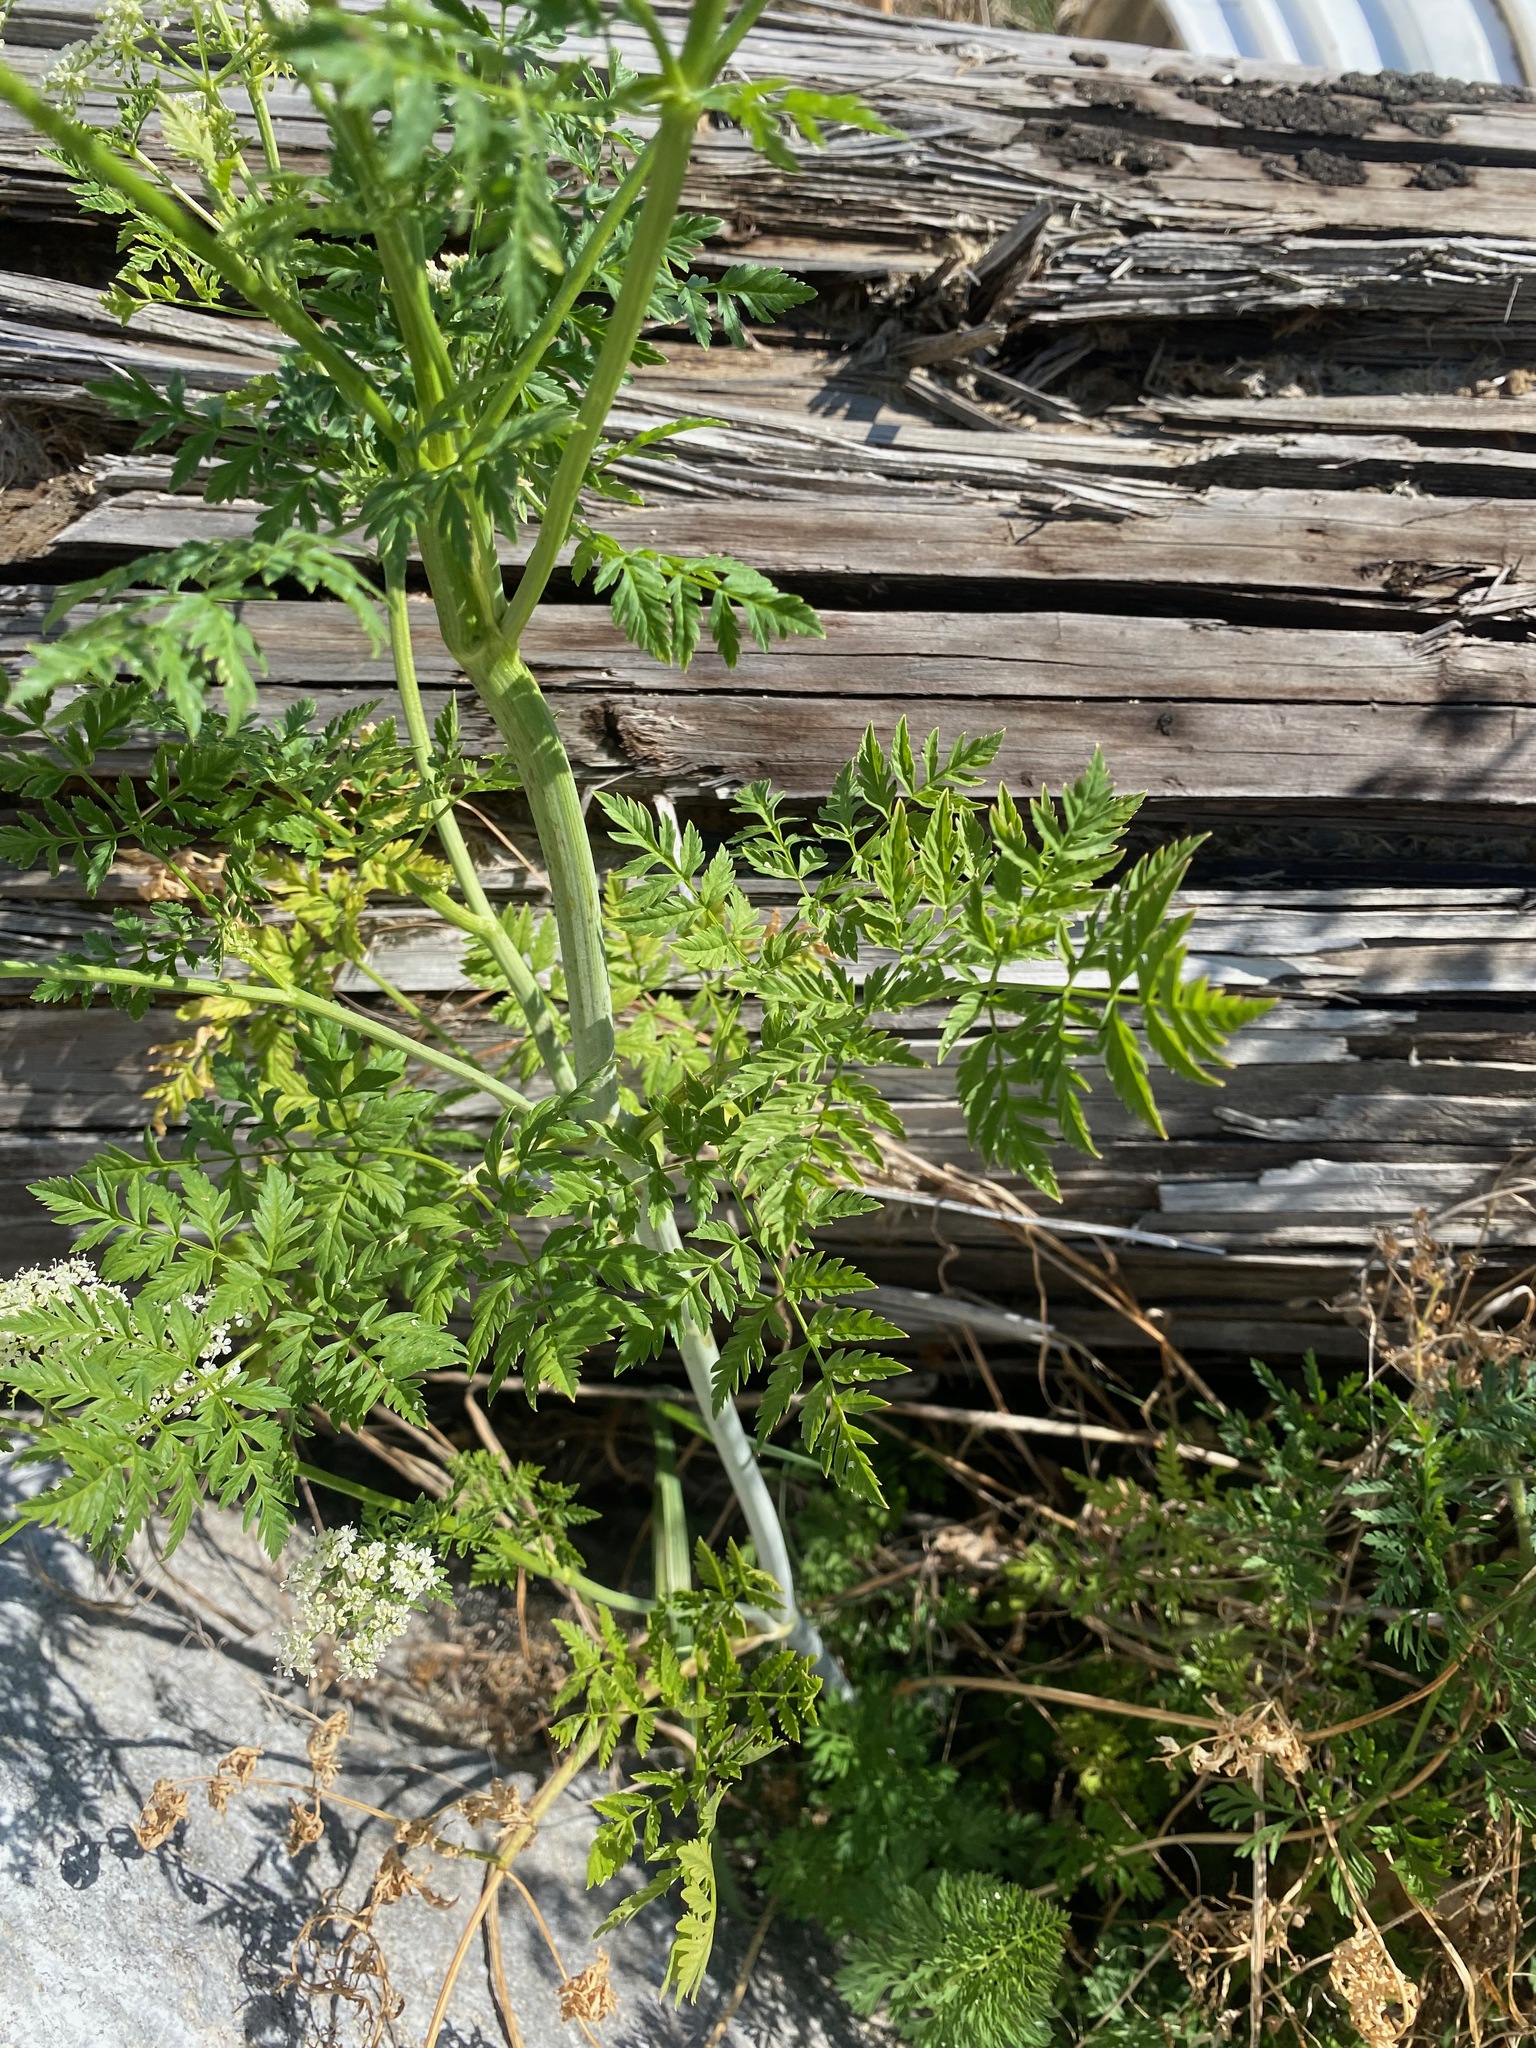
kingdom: Plantae
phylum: Tracheophyta
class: Magnoliopsida
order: Apiales
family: Apiaceae
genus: Conium
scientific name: Conium maculatum
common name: Hemlock
